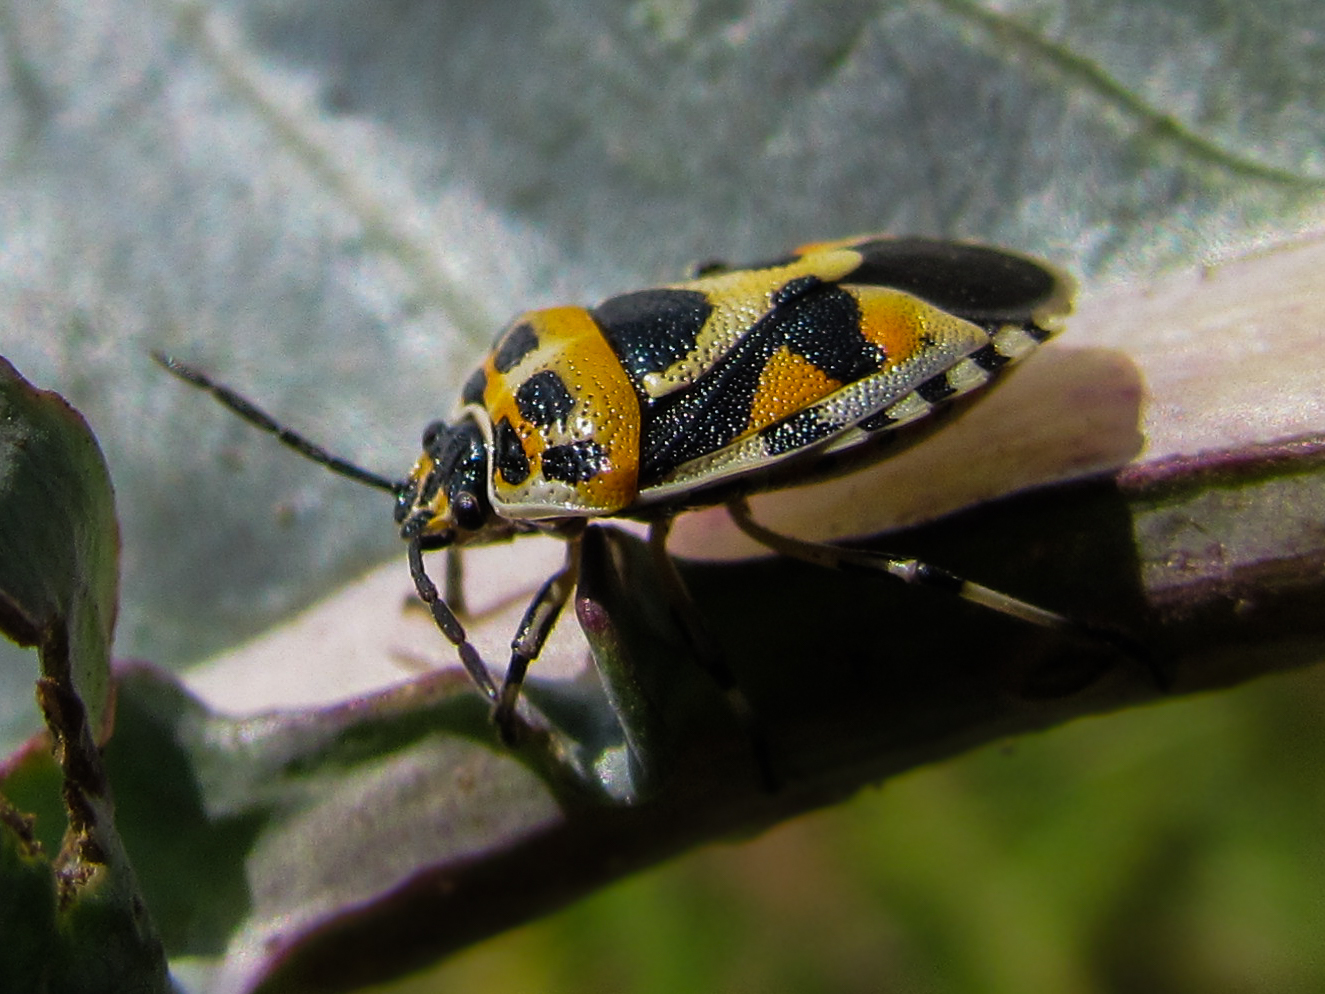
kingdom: Animalia
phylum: Arthropoda
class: Insecta
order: Hemiptera
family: Pentatomidae
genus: Eurydema
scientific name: Eurydema ornata
